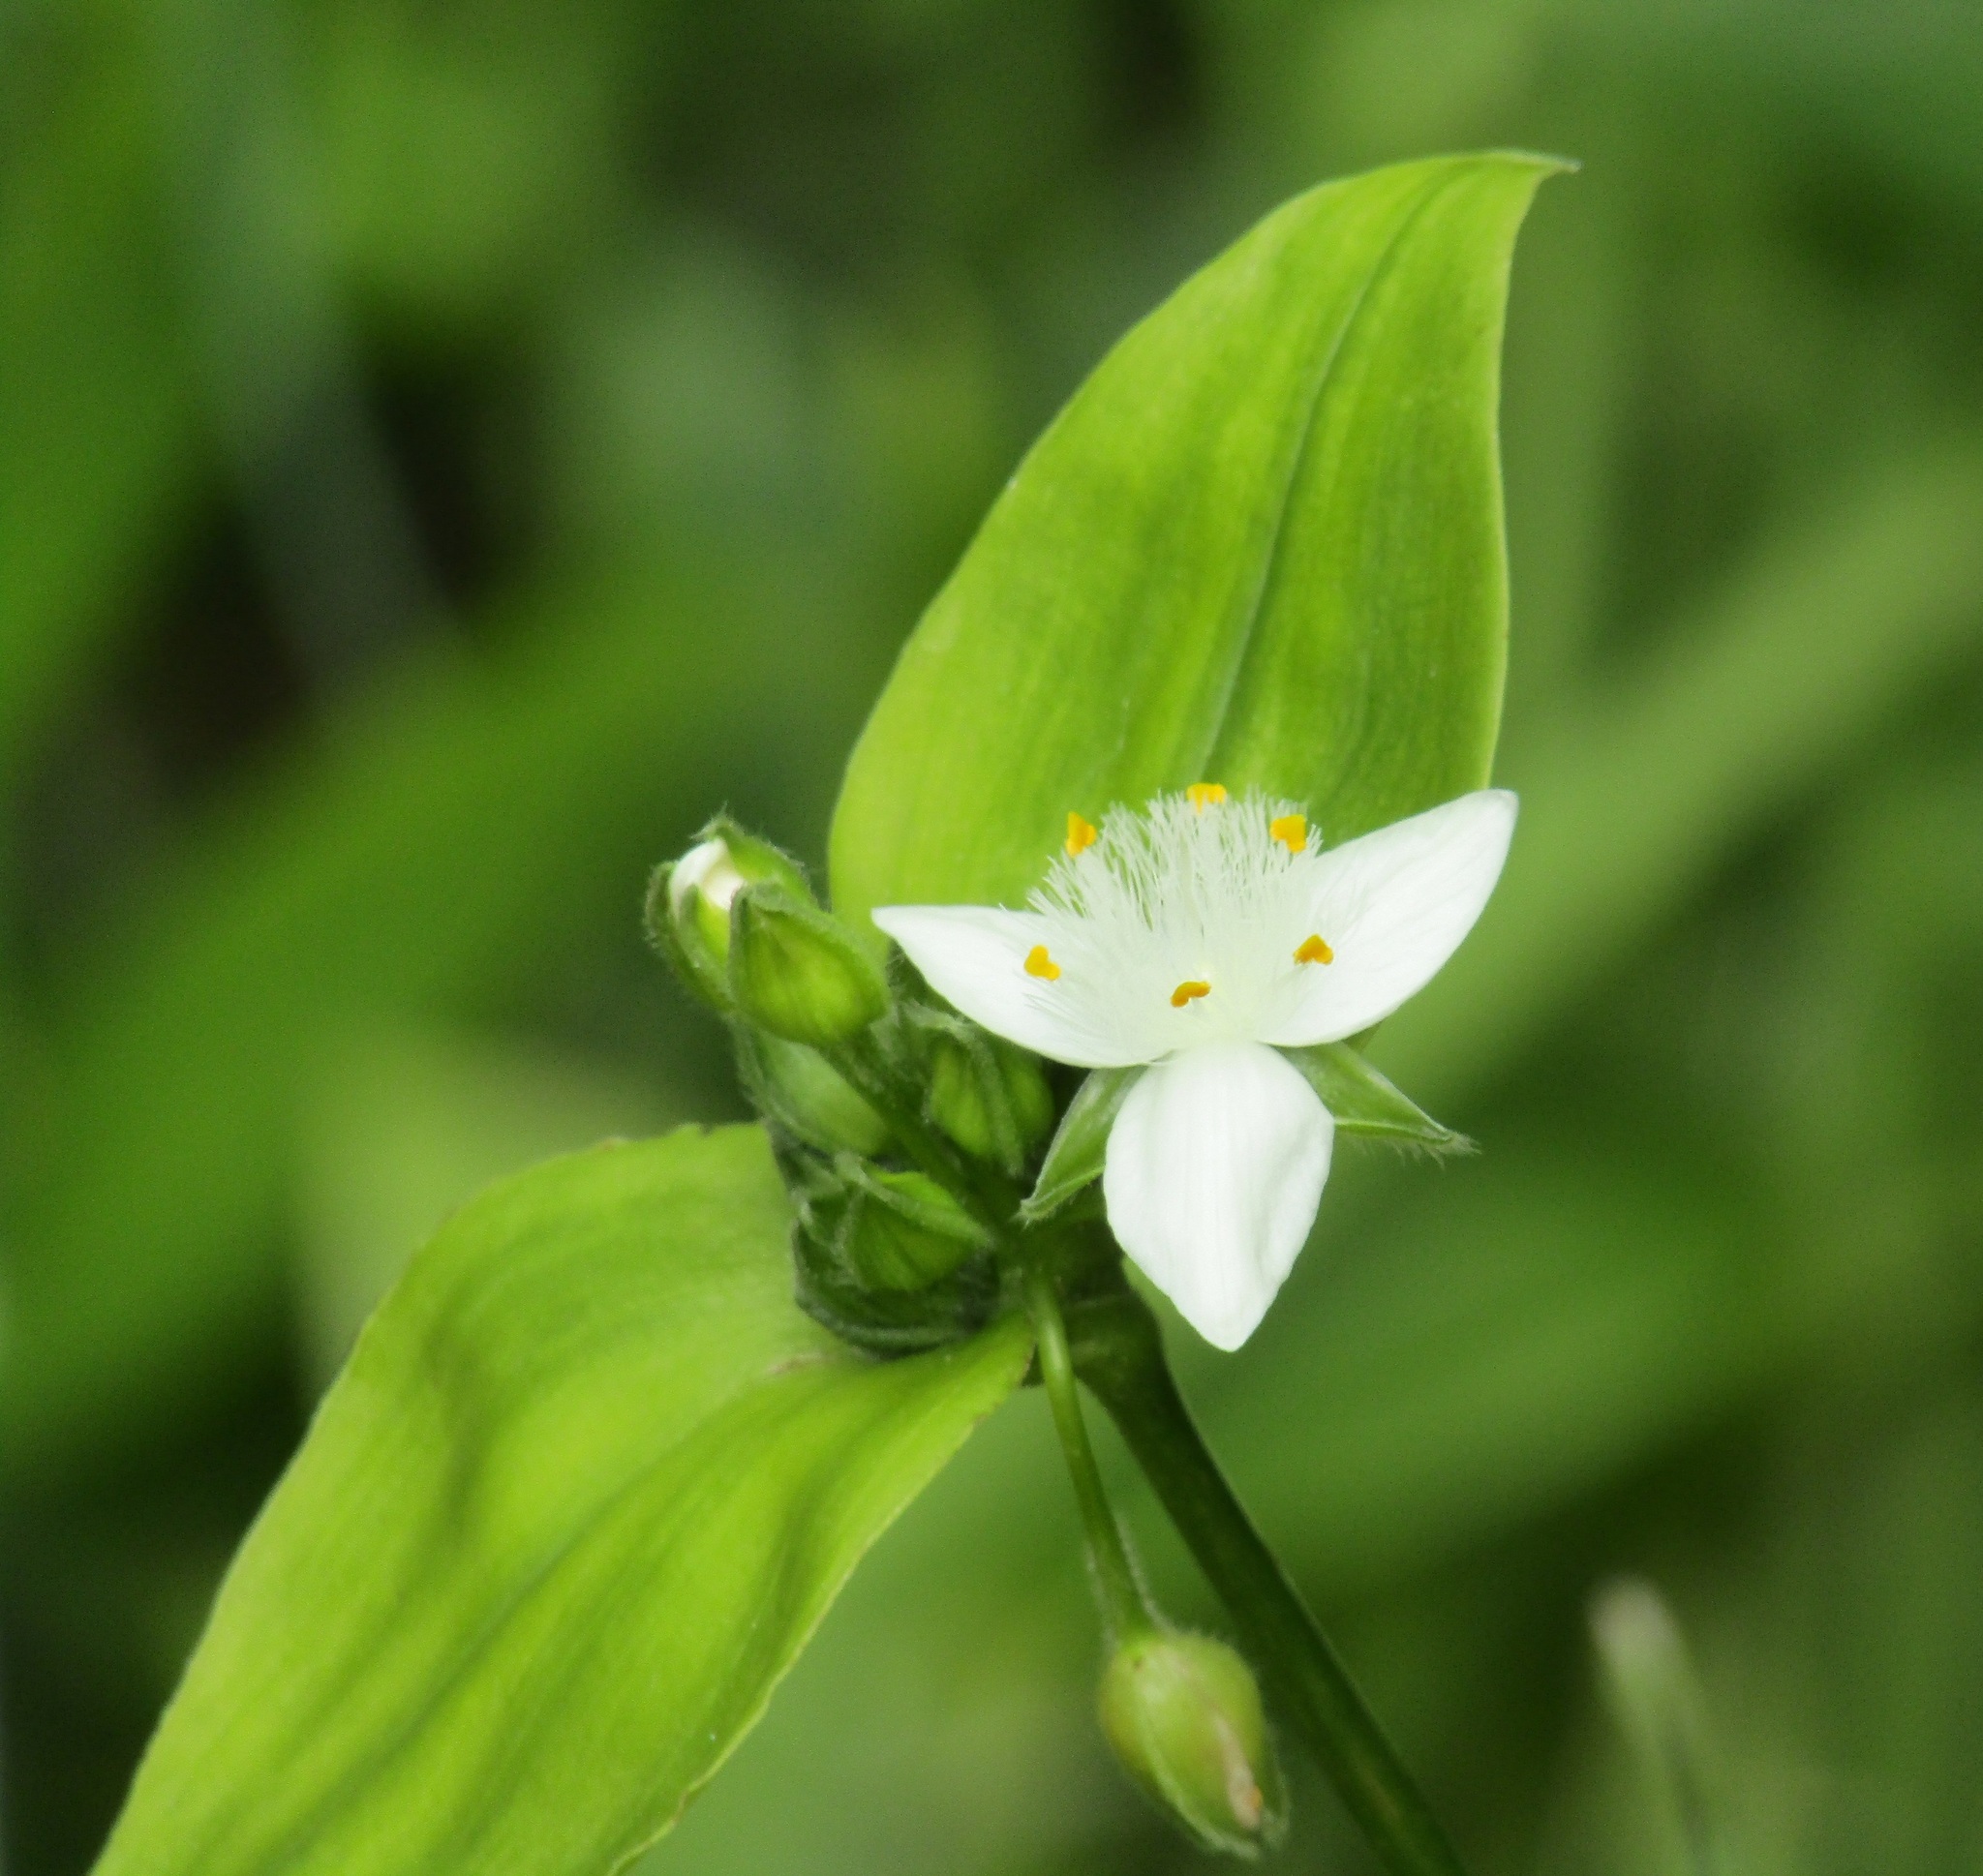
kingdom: Plantae
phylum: Tracheophyta
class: Liliopsida
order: Commelinales
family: Commelinaceae
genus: Tradescantia
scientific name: Tradescantia fluminensis
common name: Wandering-jew
